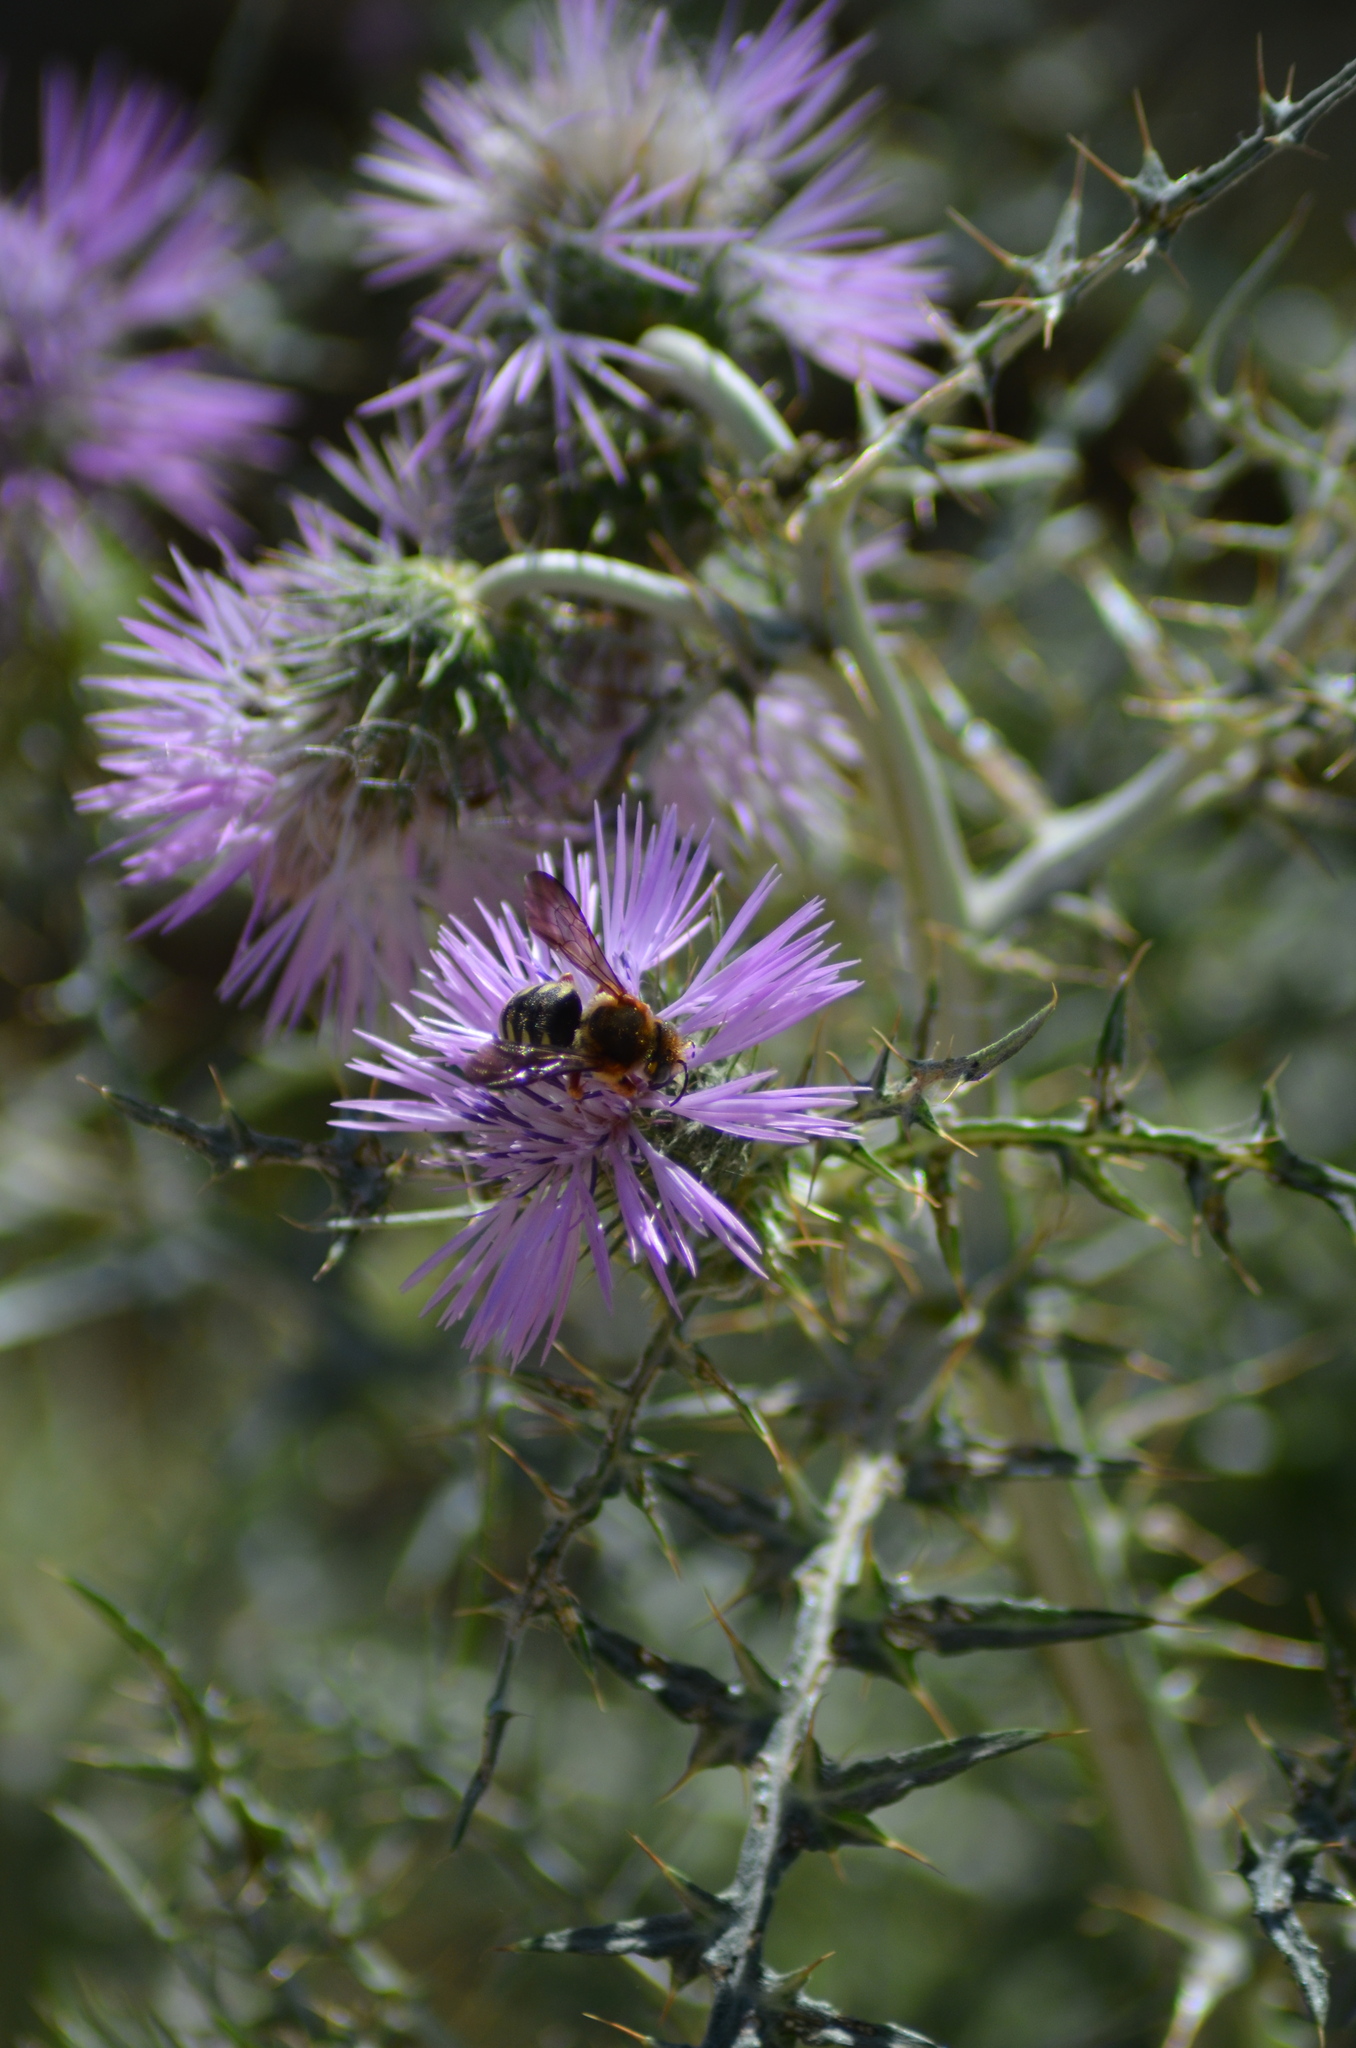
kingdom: Plantae
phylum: Tracheophyta
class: Magnoliopsida
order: Asterales
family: Asteraceae
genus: Galactites
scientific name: Galactites tomentosa
